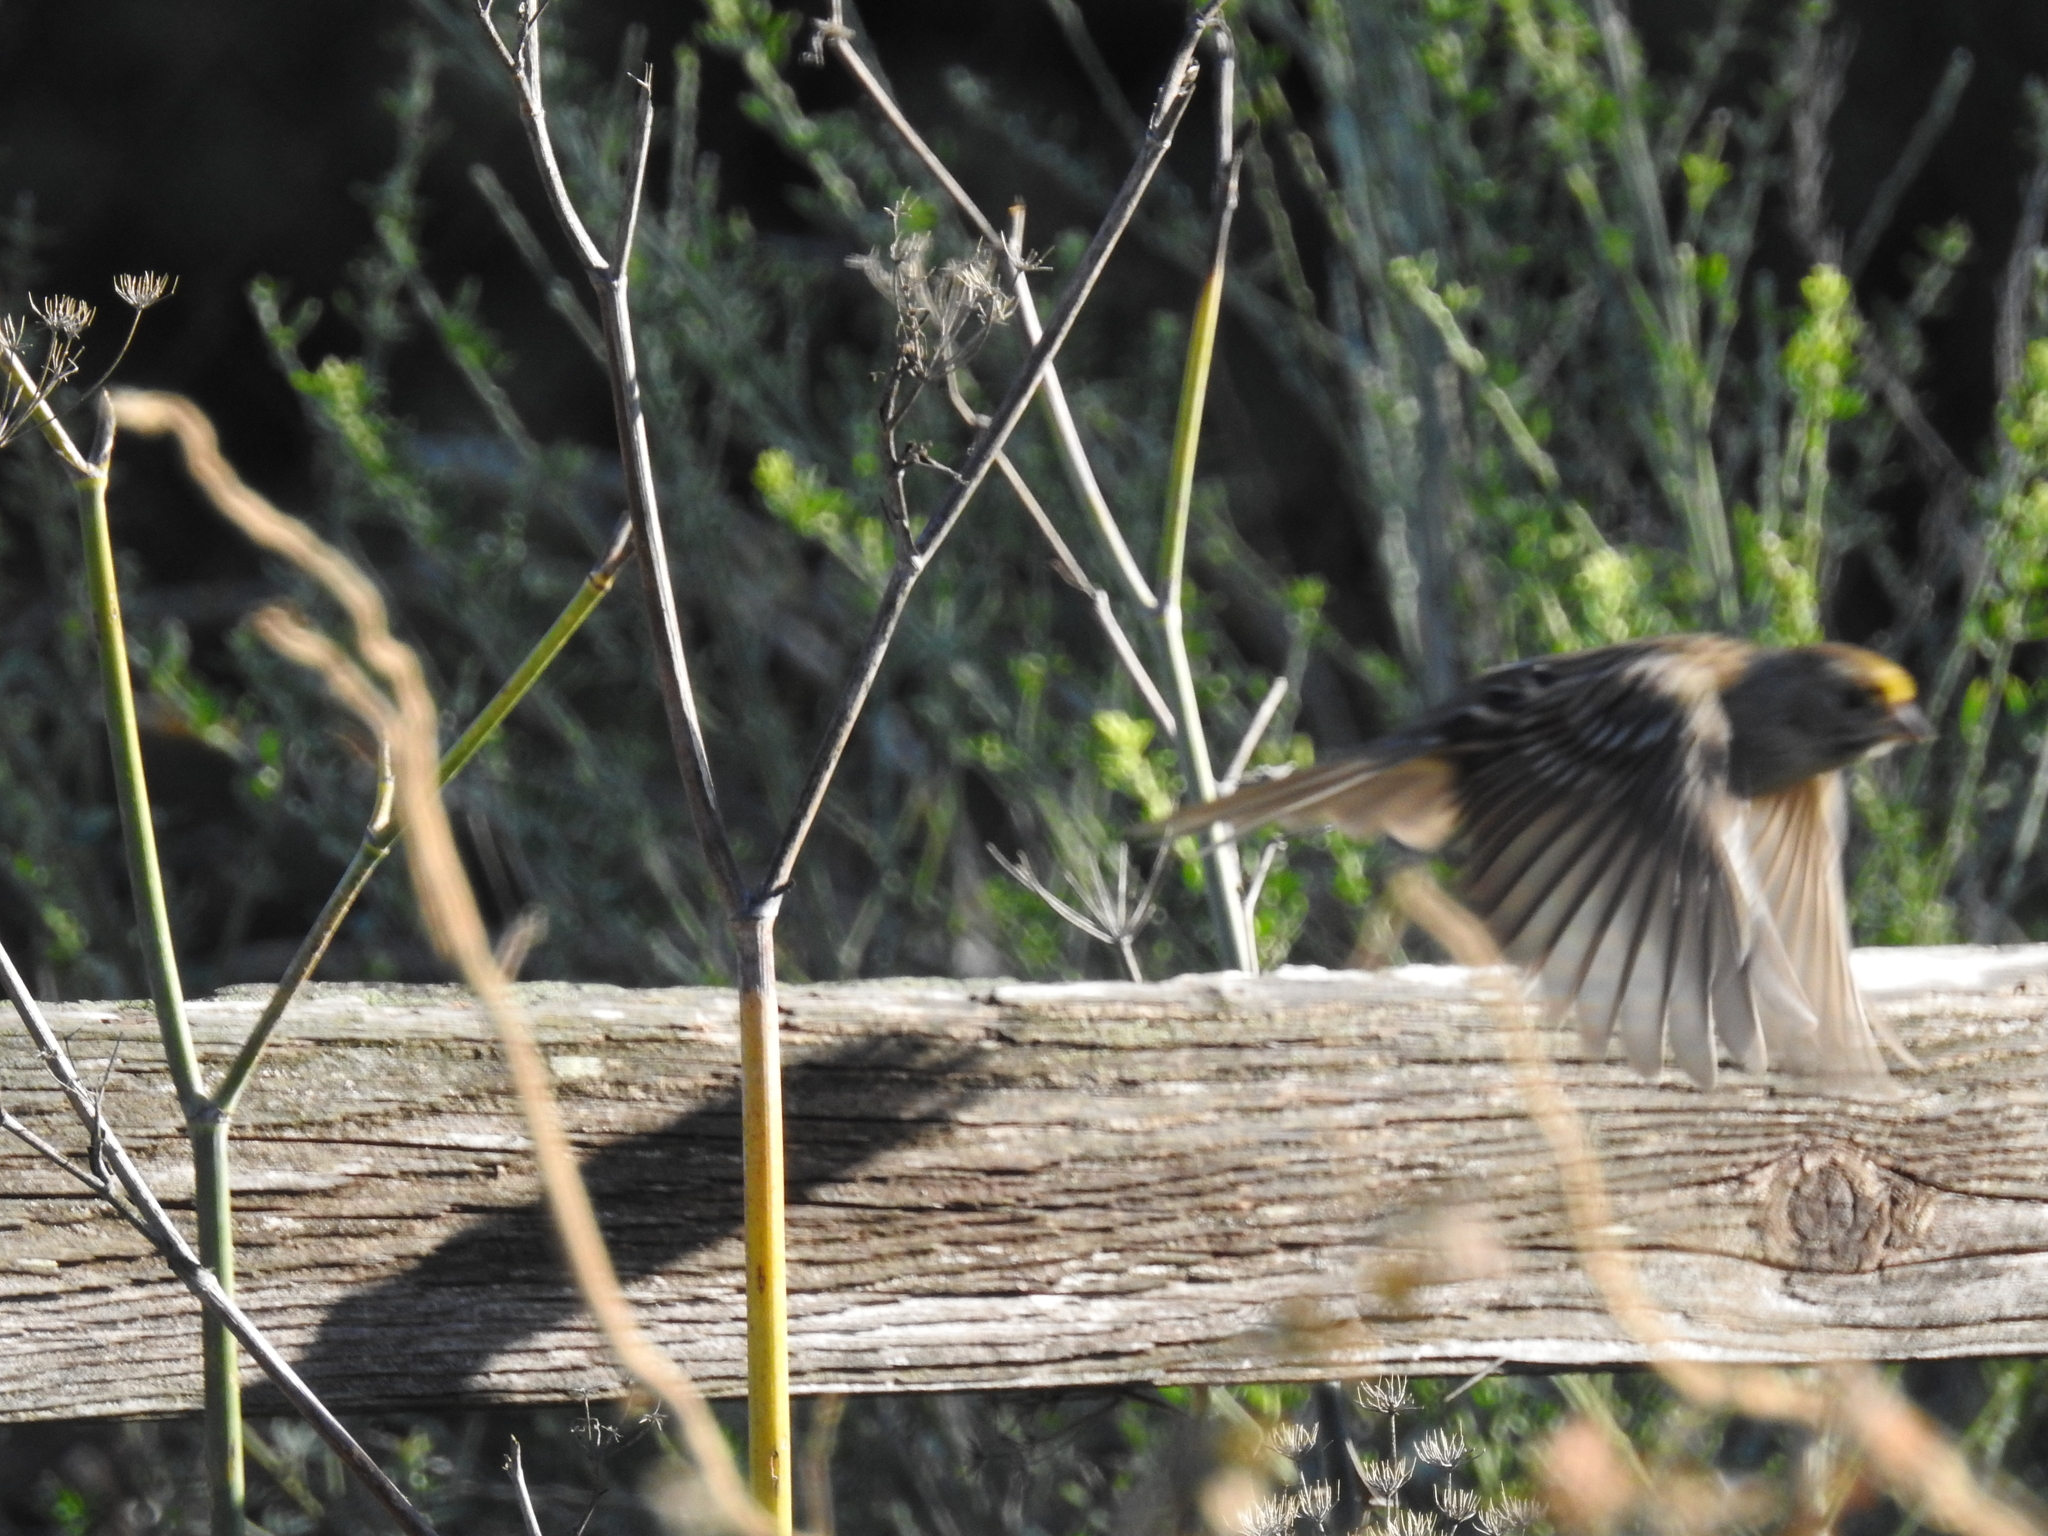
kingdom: Animalia
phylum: Chordata
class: Aves
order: Passeriformes
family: Passerellidae
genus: Zonotrichia
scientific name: Zonotrichia atricapilla
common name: Golden-crowned sparrow
